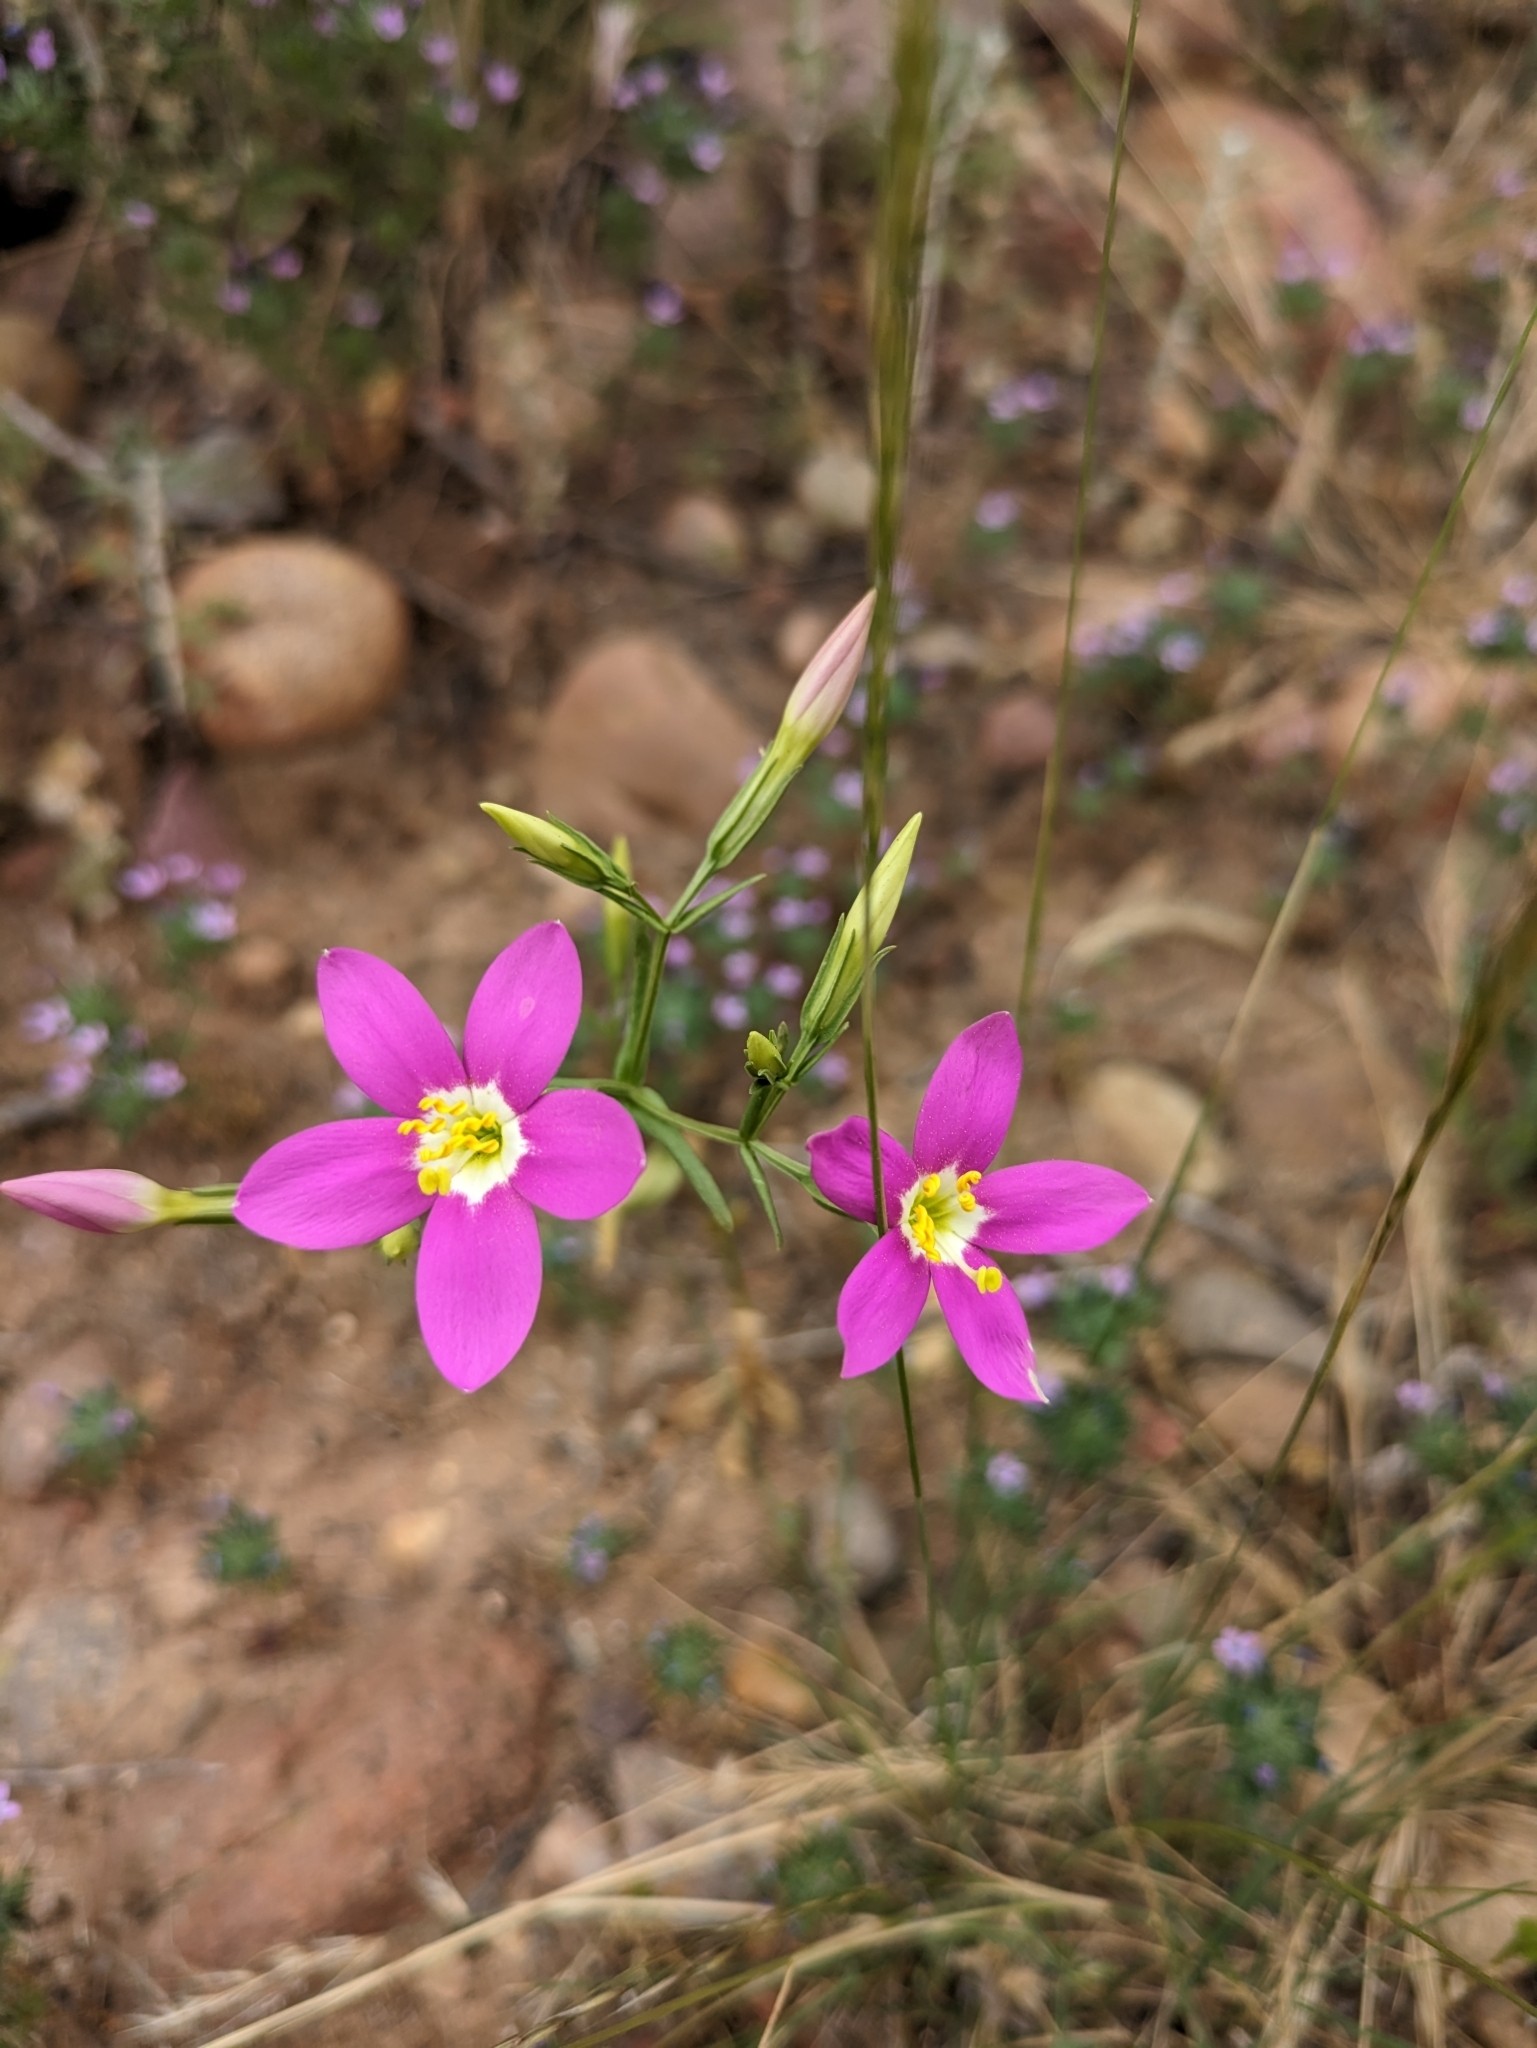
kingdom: Plantae
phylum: Tracheophyta
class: Magnoliopsida
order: Gentianales
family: Gentianaceae
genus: Zeltnera
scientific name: Zeltnera venusta
